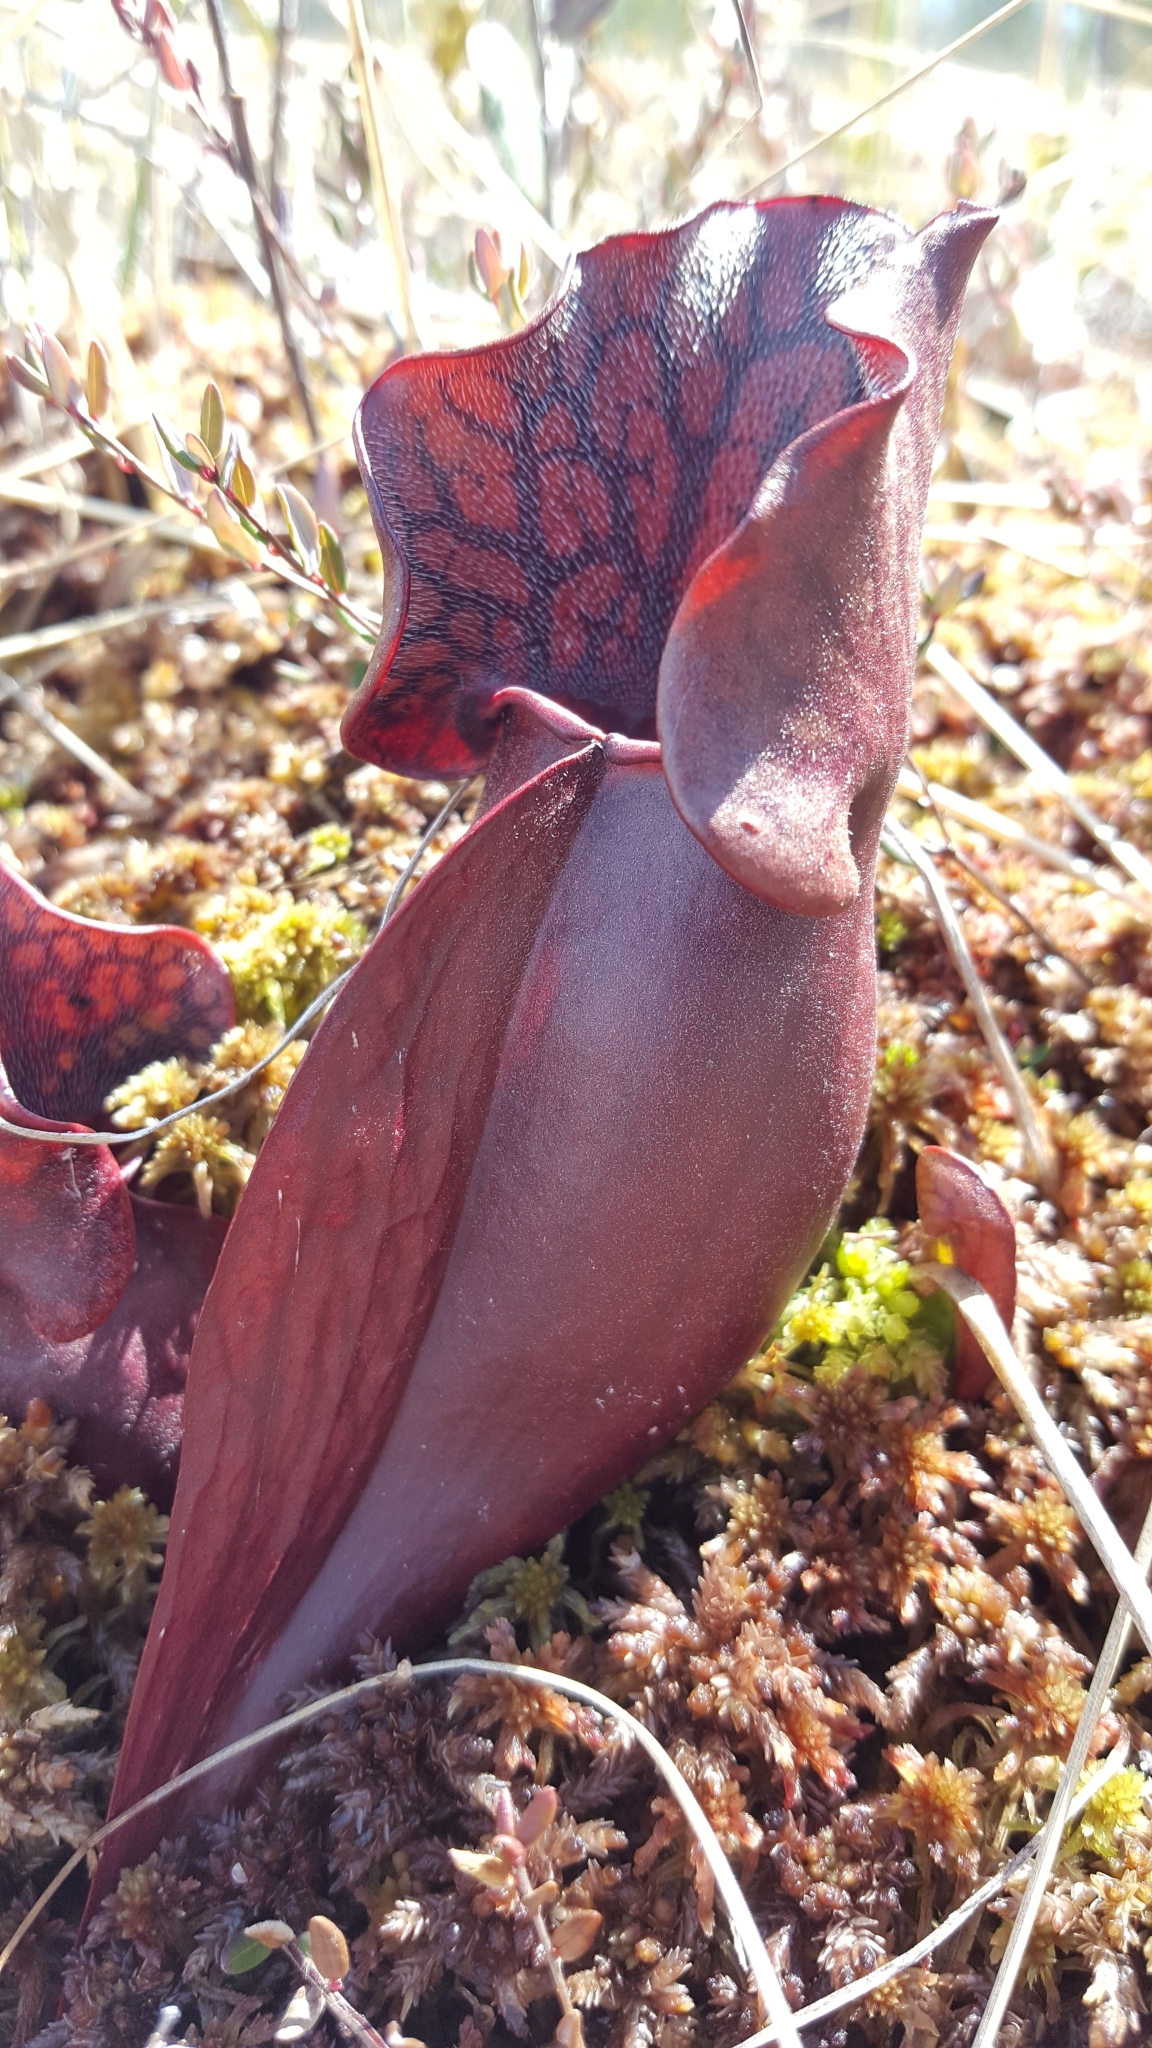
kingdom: Plantae
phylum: Tracheophyta
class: Magnoliopsida
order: Ericales
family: Sarraceniaceae
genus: Sarracenia
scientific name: Sarracenia purpurea
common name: Pitcherplant
